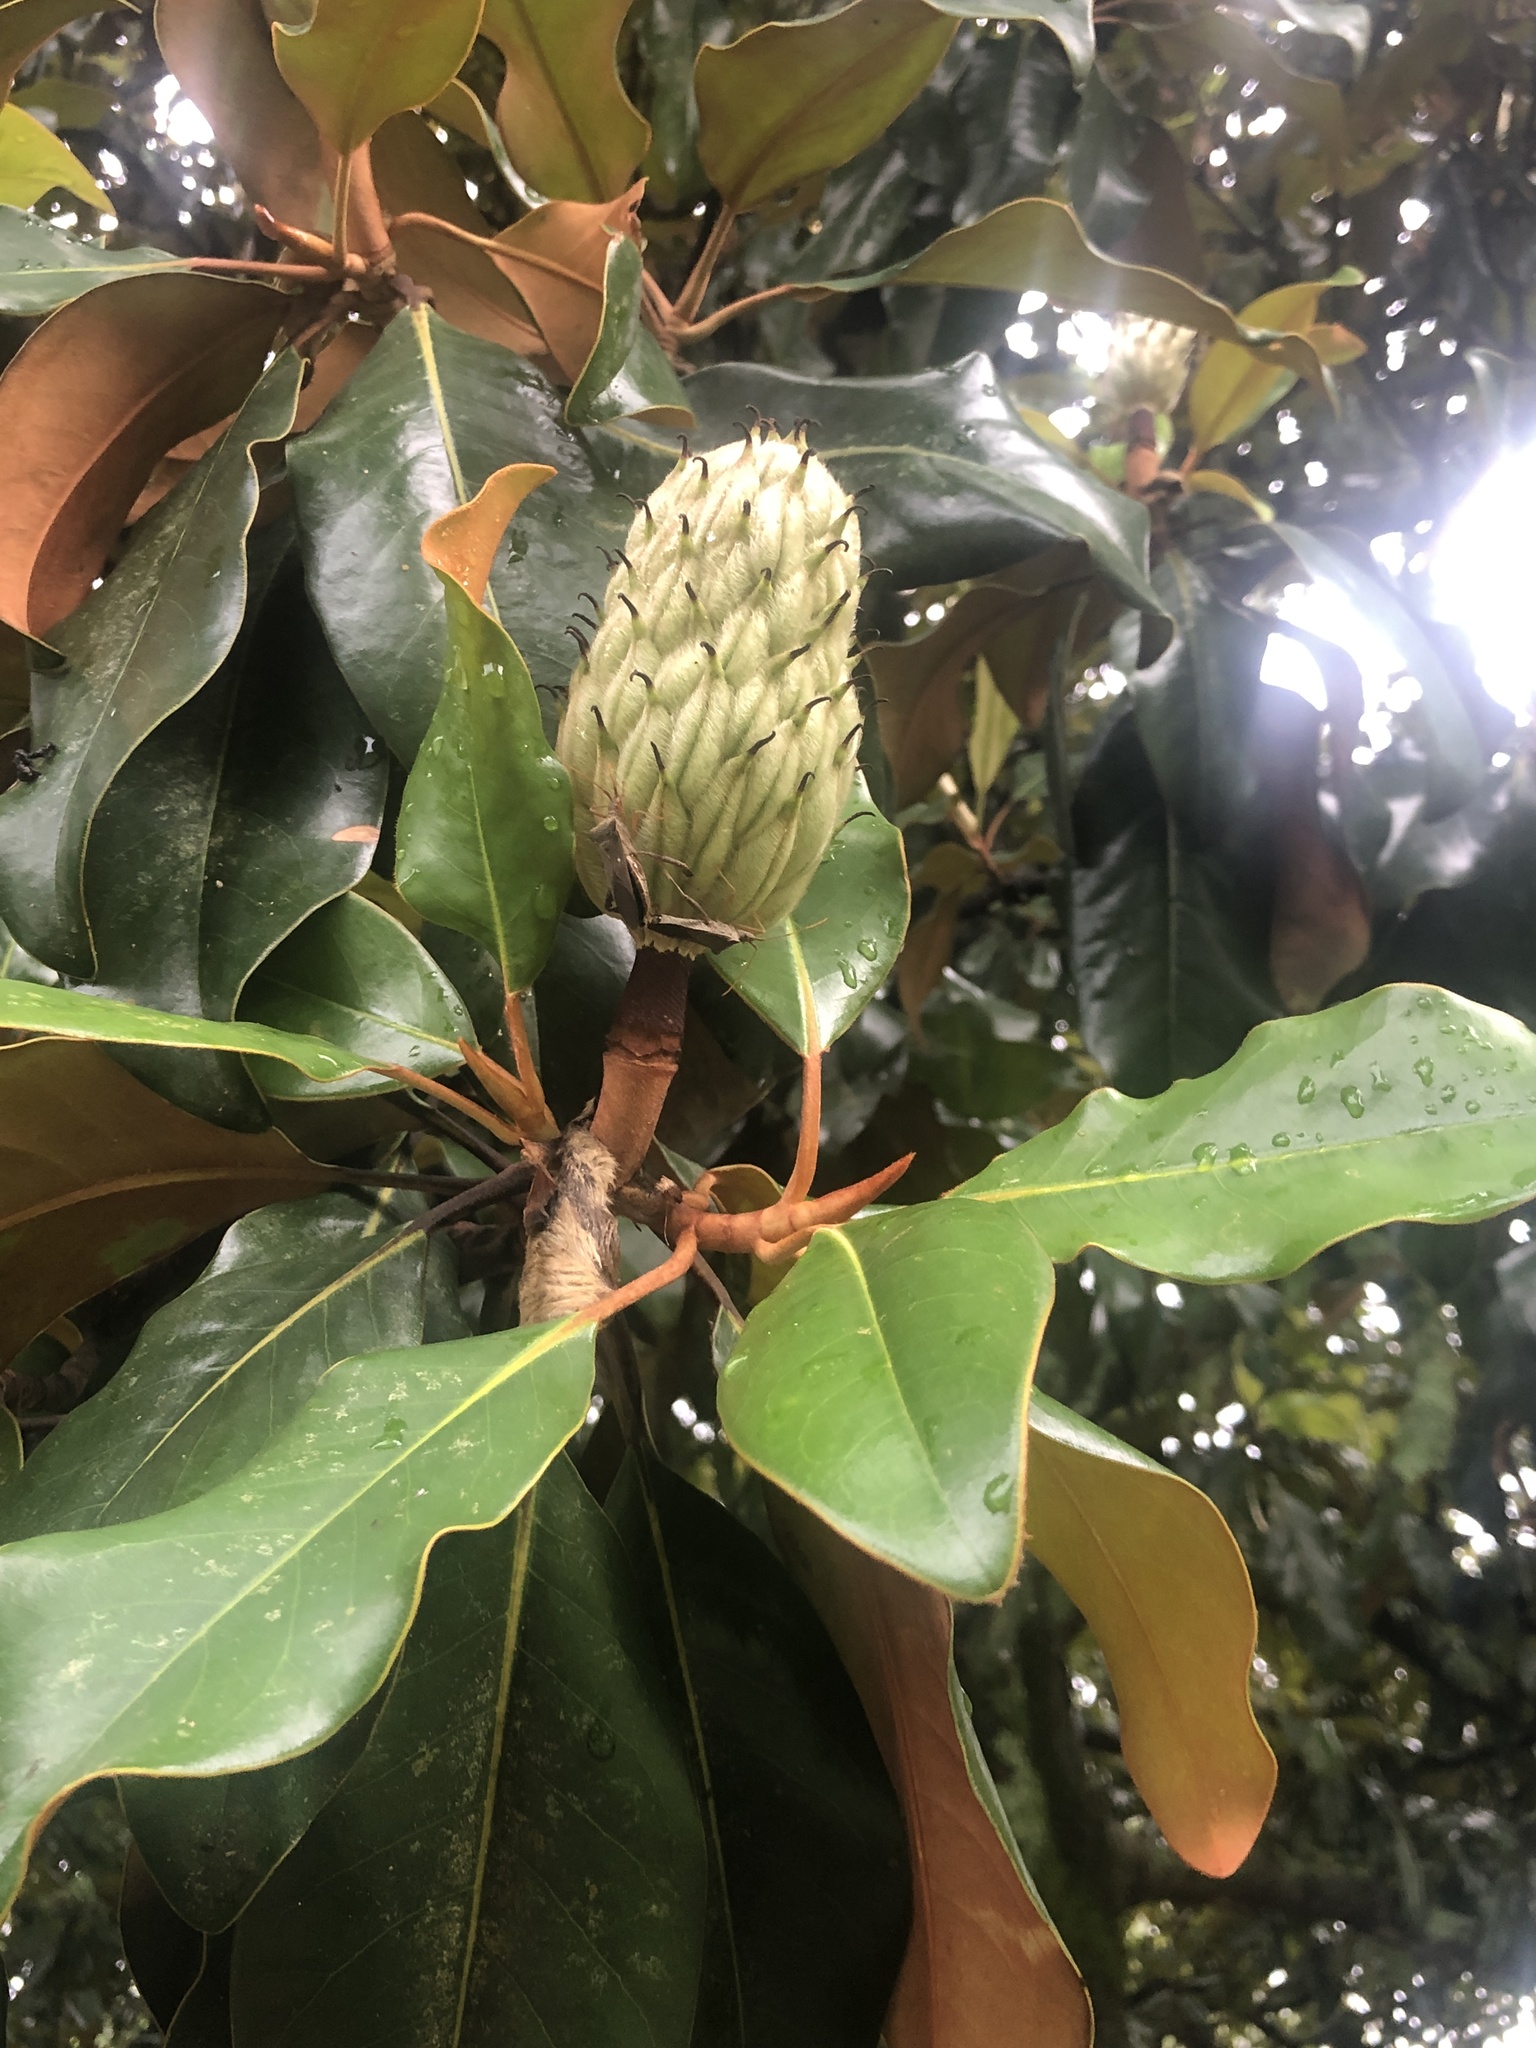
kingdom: Plantae
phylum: Tracheophyta
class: Magnoliopsida
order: Magnoliales
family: Magnoliaceae
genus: Magnolia
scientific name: Magnolia grandiflora
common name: Southern magnolia
